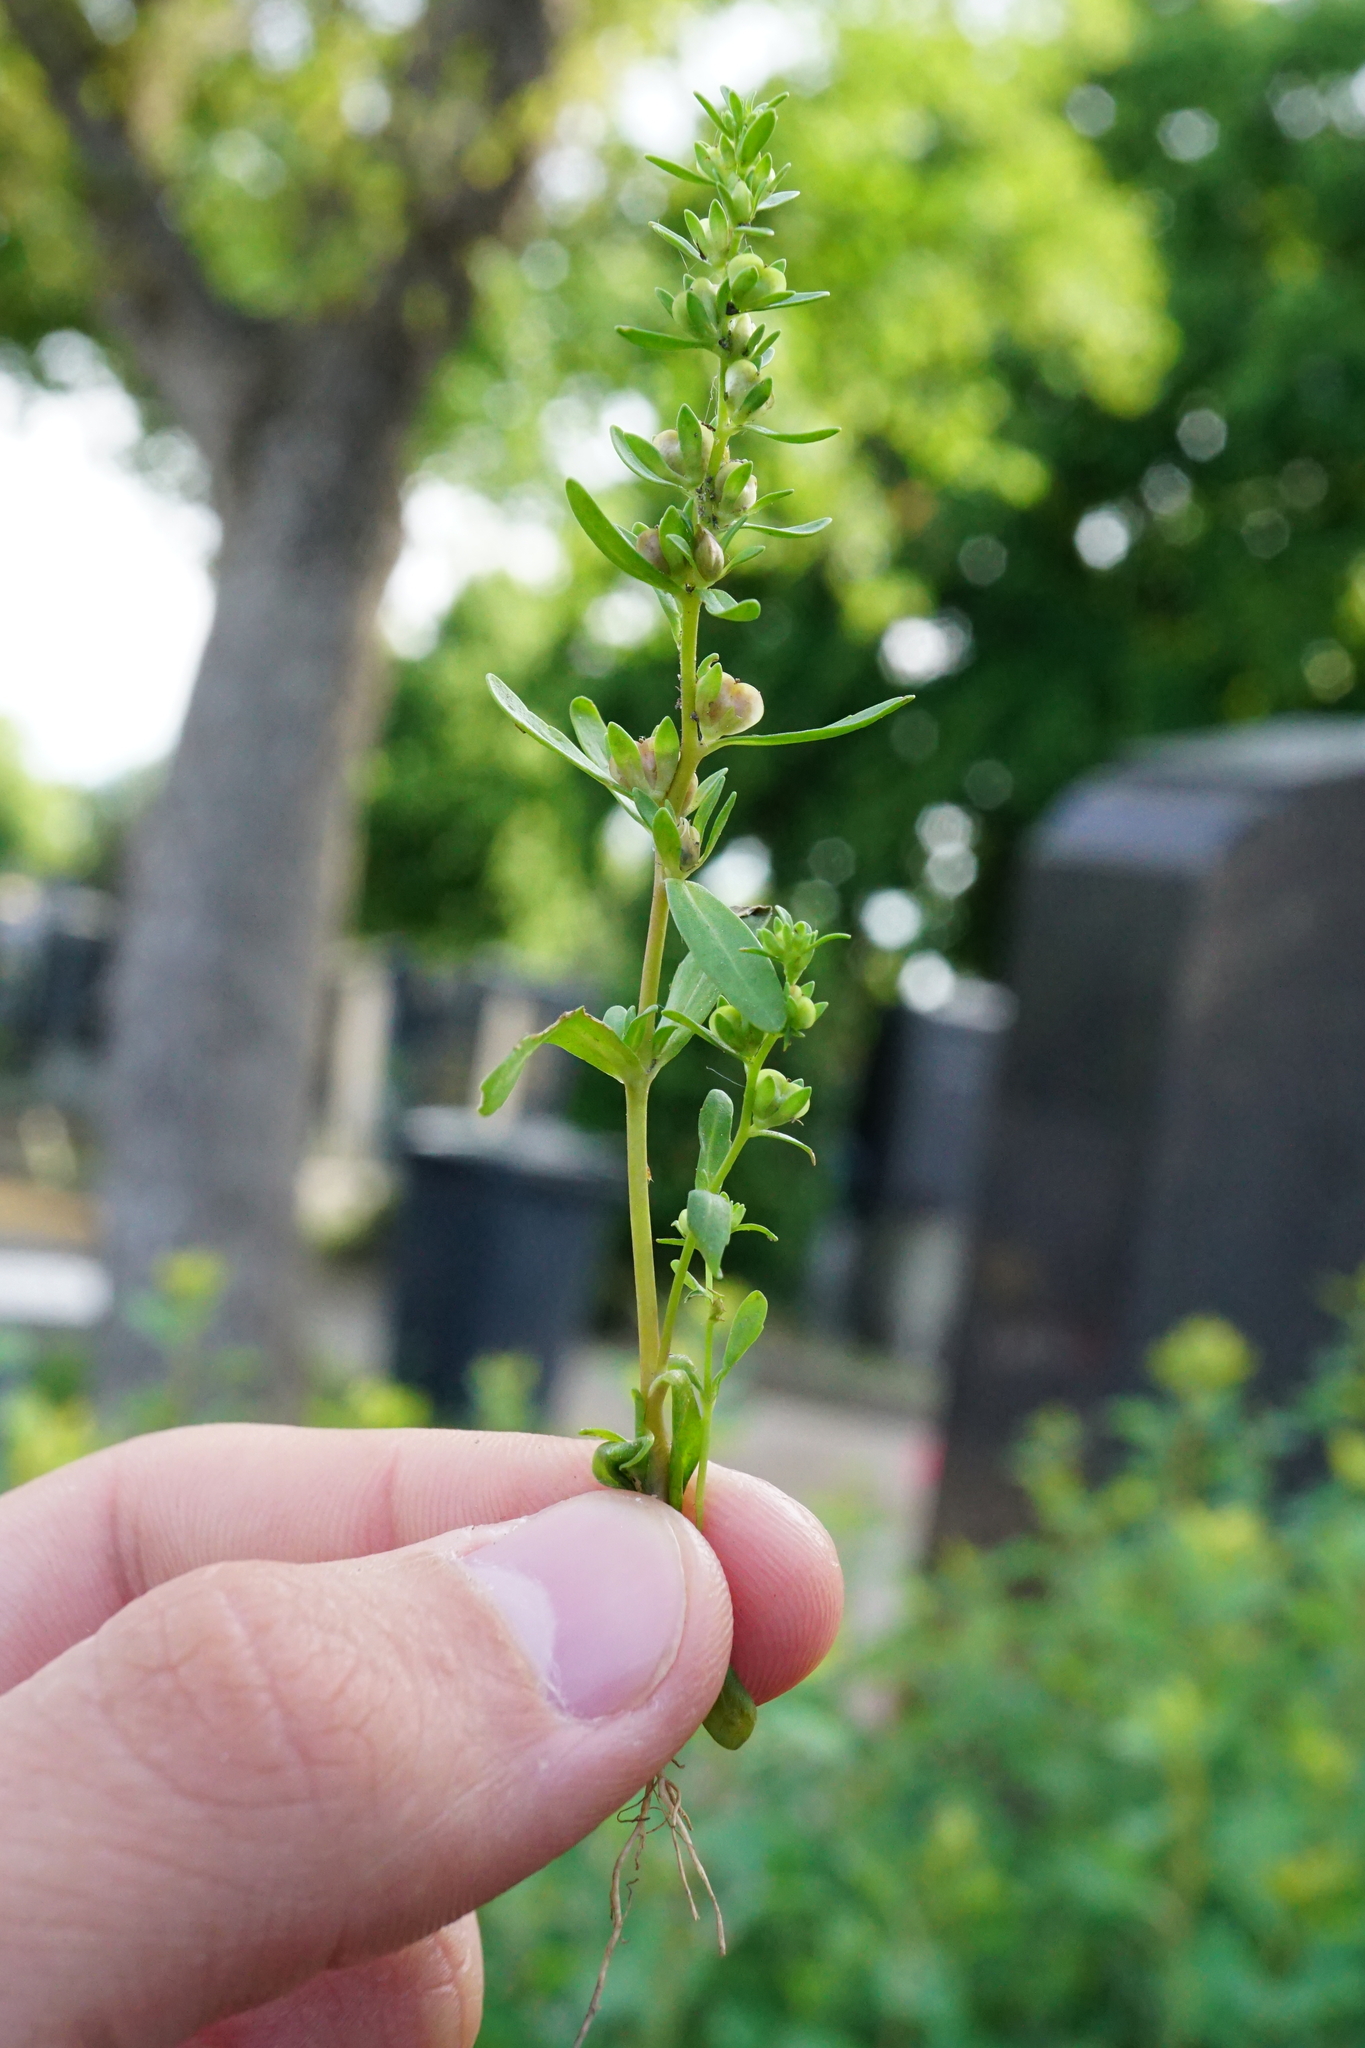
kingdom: Plantae
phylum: Tracheophyta
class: Magnoliopsida
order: Lamiales
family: Plantaginaceae
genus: Veronica
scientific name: Veronica peregrina
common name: Neckweed
